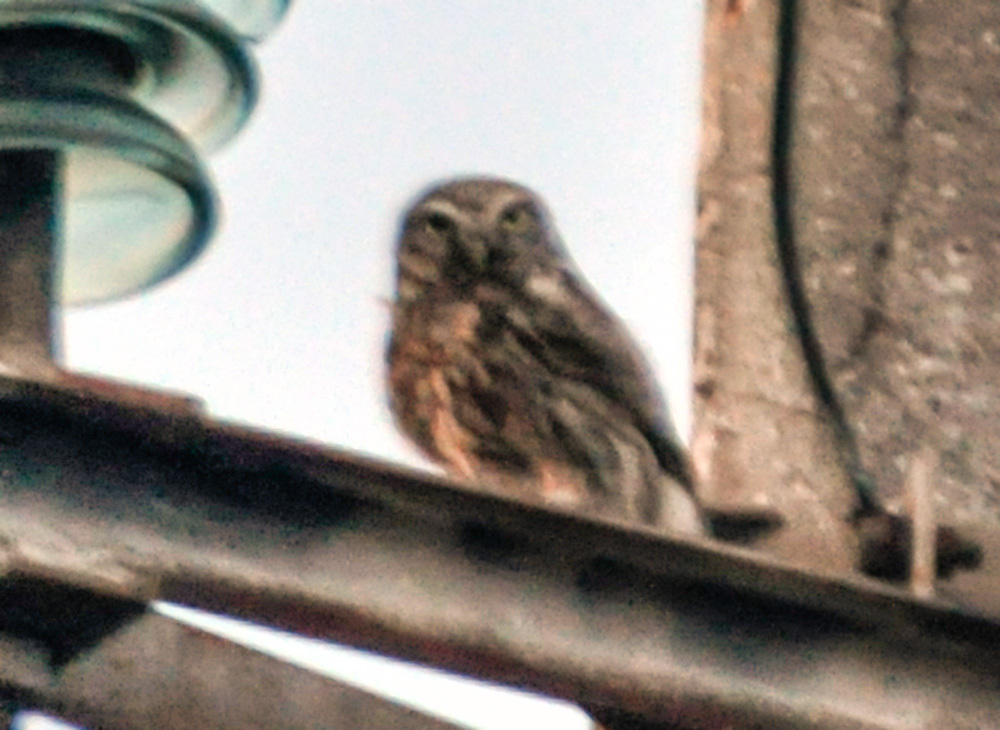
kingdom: Animalia
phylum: Chordata
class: Aves
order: Strigiformes
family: Strigidae
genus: Athene
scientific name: Athene noctua
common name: Little owl
